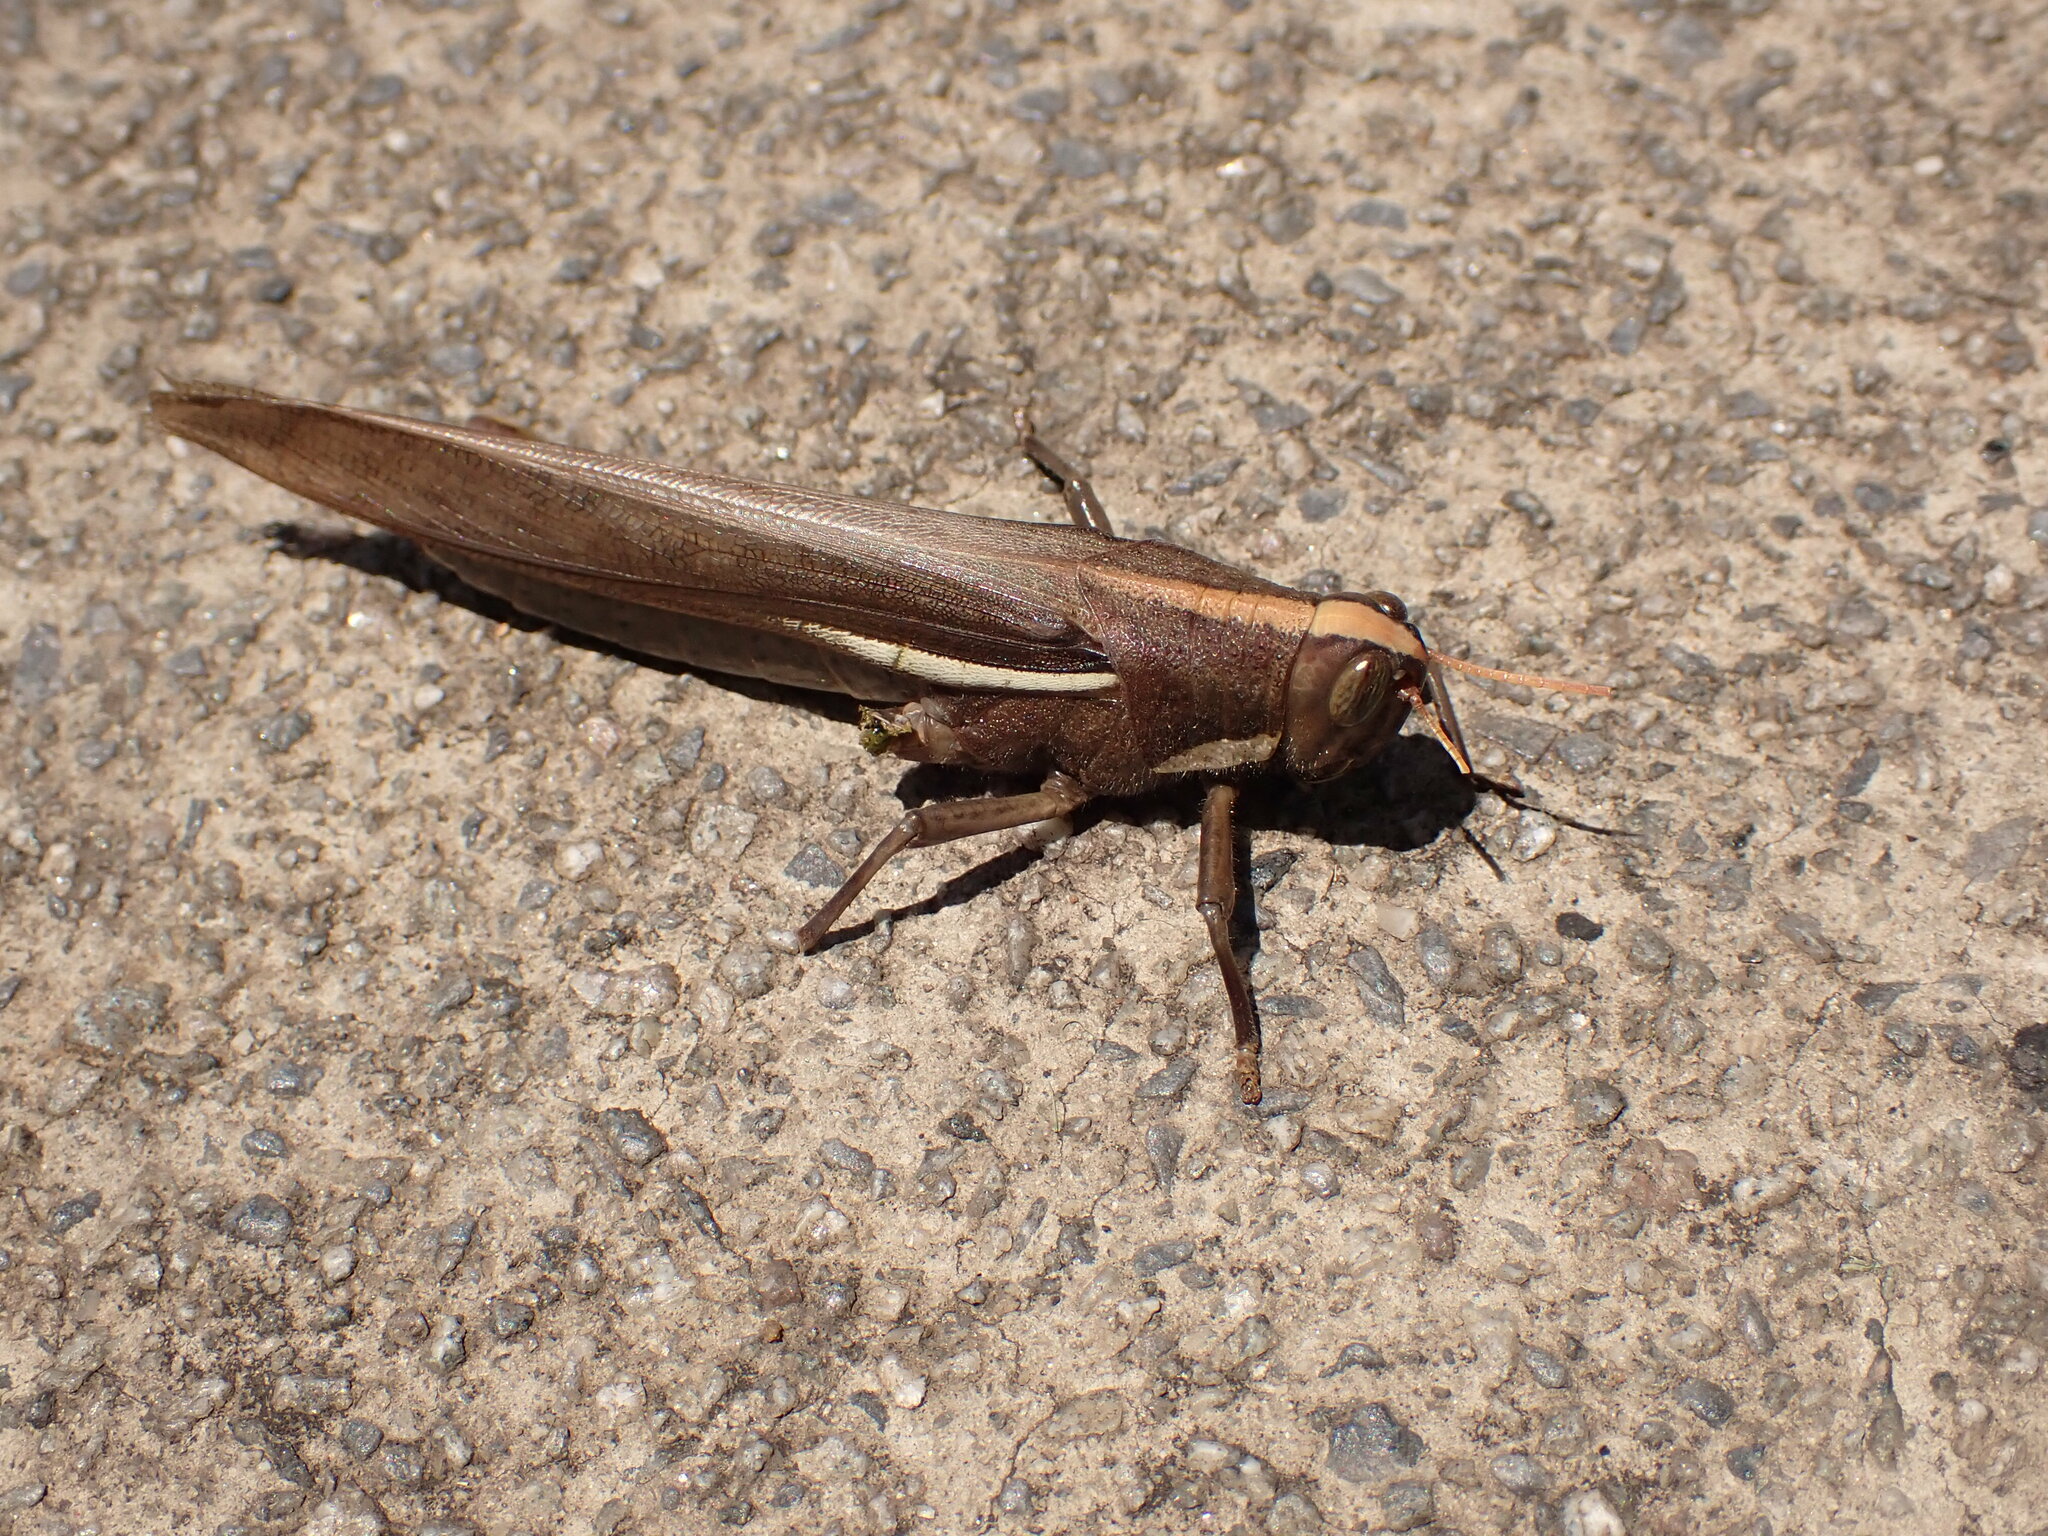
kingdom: Animalia
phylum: Arthropoda
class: Insecta
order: Orthoptera
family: Acrididae
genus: Schistocerca
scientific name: Schistocerca flavofasciata
